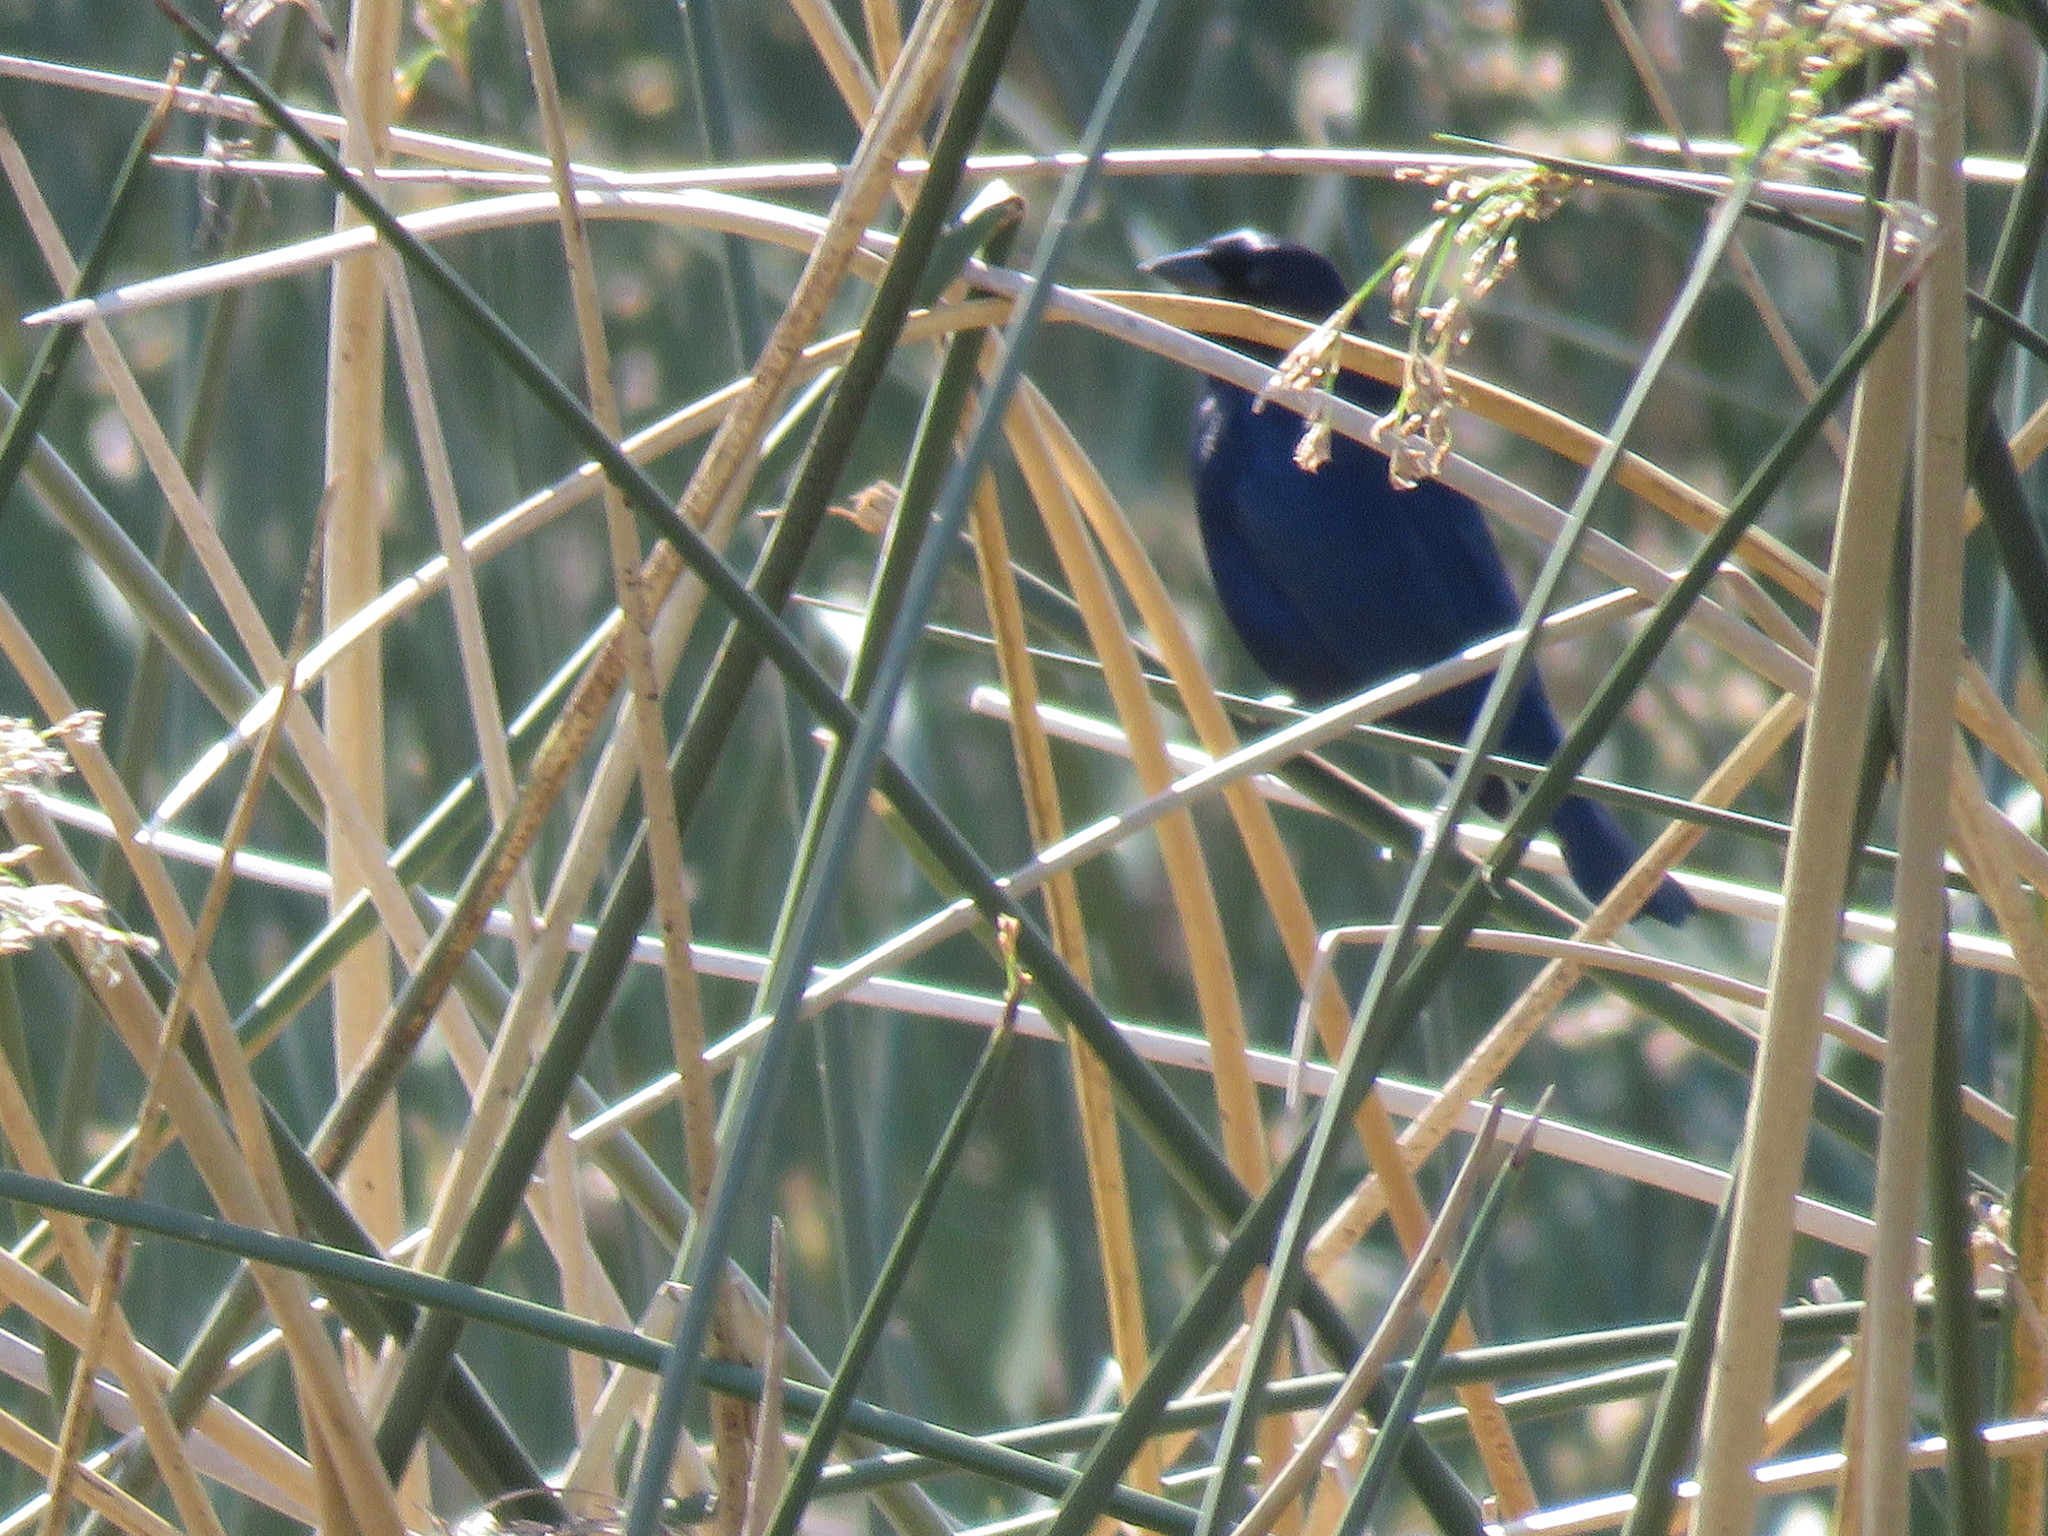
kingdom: Animalia
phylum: Chordata
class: Aves
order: Passeriformes
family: Icteridae
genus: Molothrus
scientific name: Molothrus bonariensis
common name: Shiny cowbird
